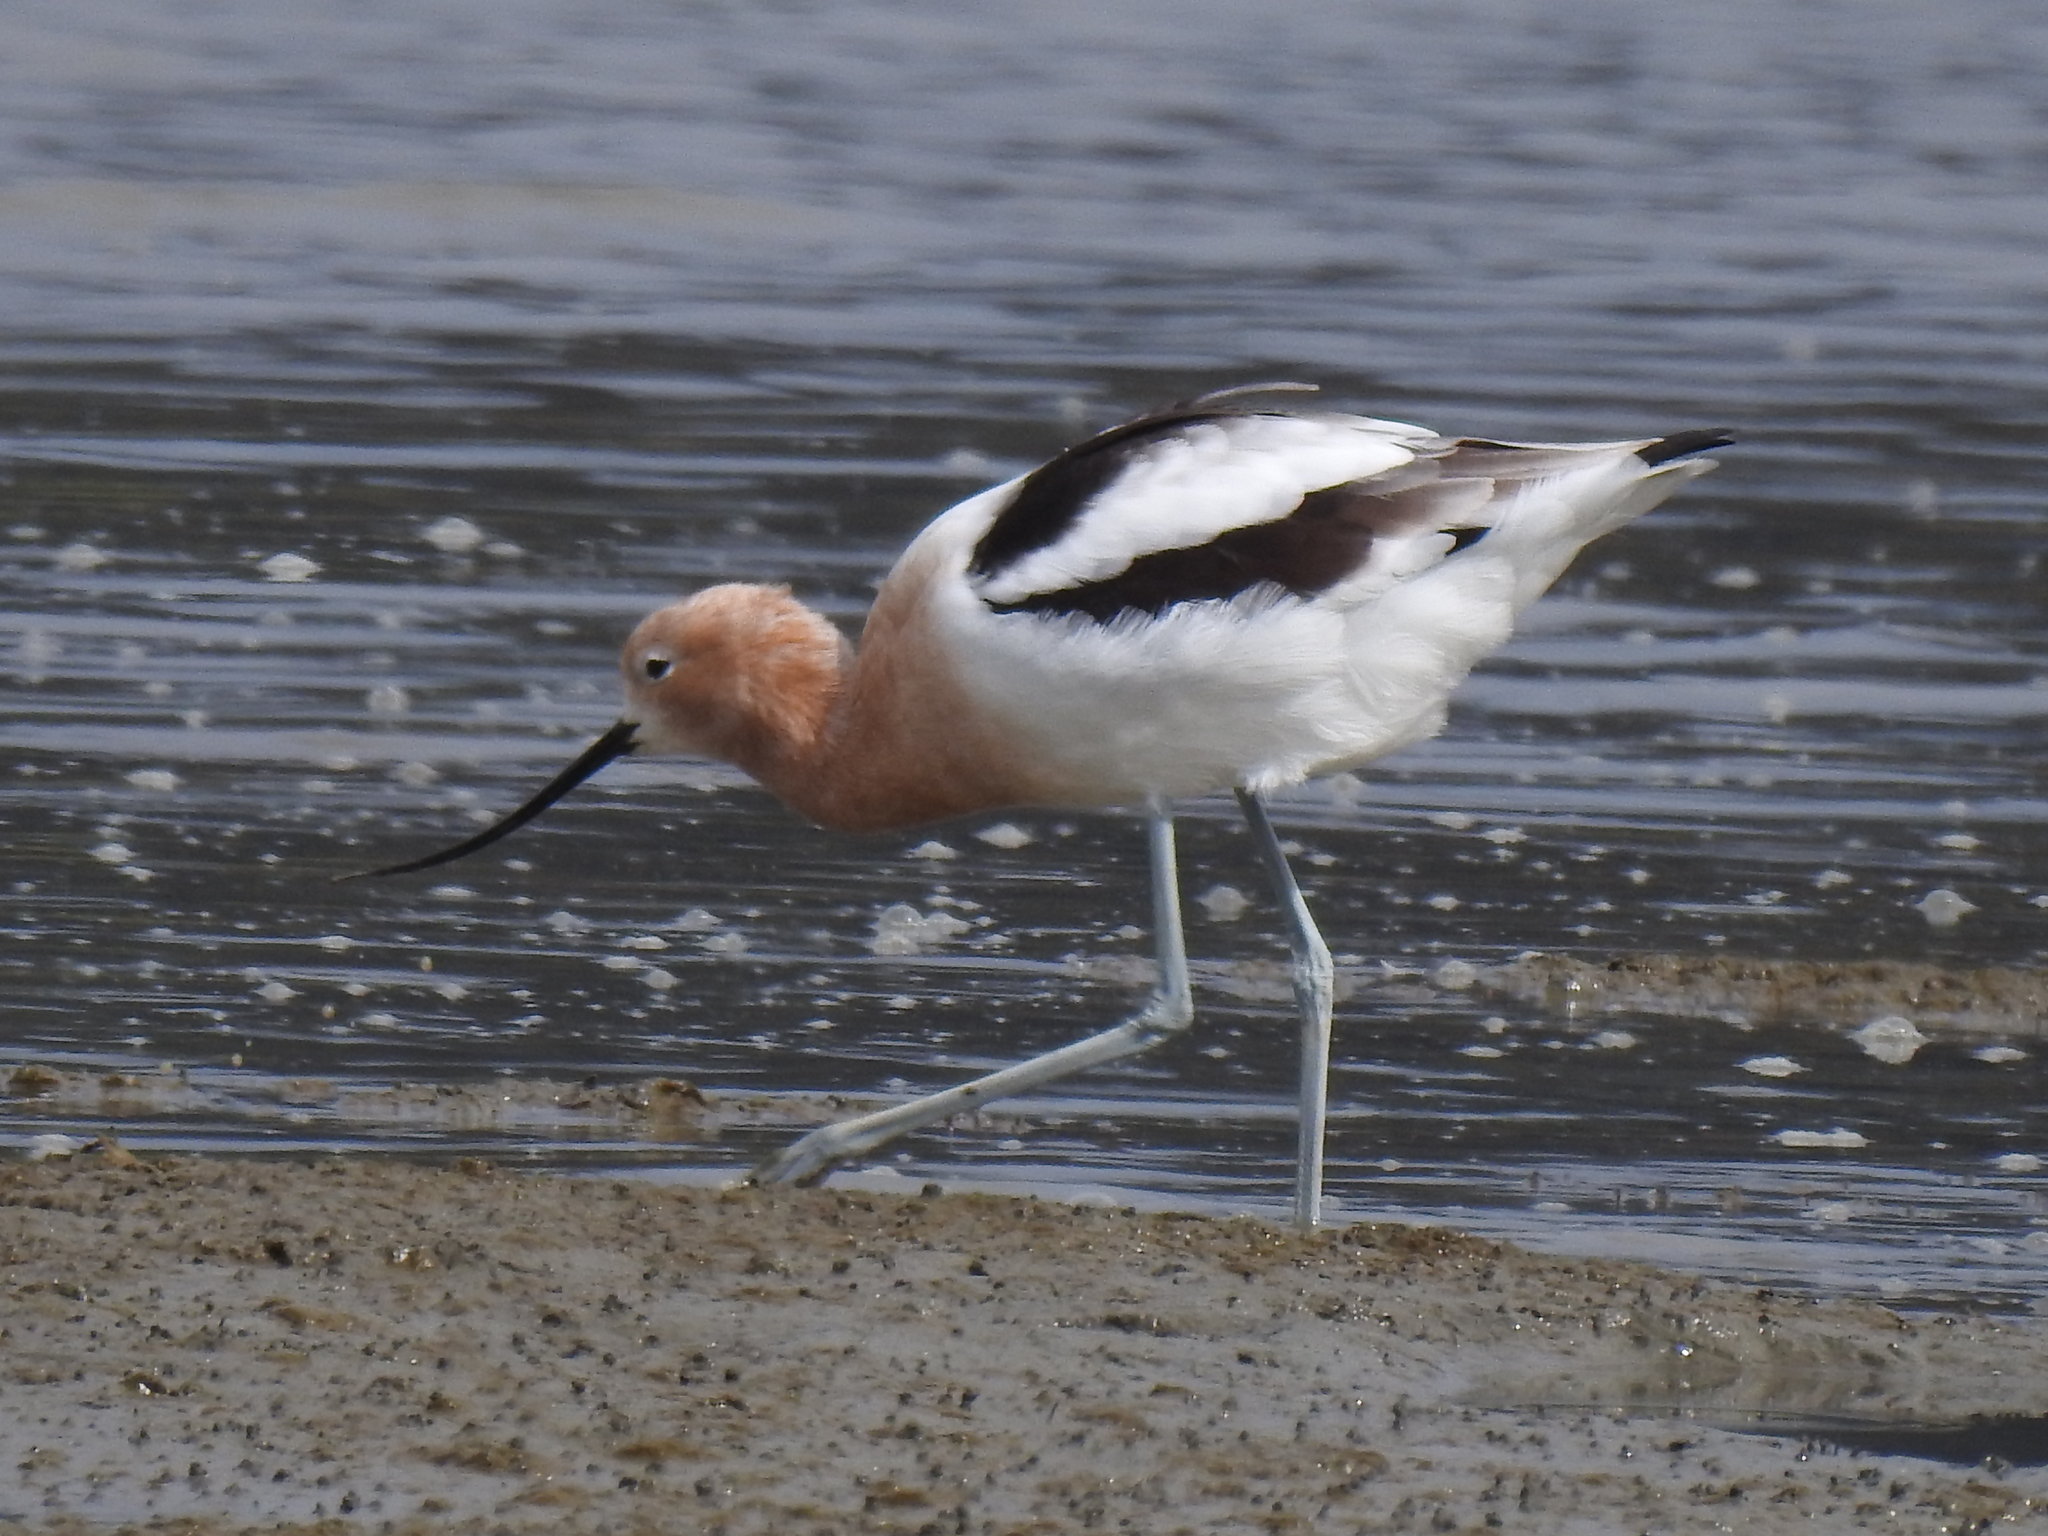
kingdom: Animalia
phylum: Chordata
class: Aves
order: Charadriiformes
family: Recurvirostridae
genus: Recurvirostra
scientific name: Recurvirostra americana
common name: American avocet
